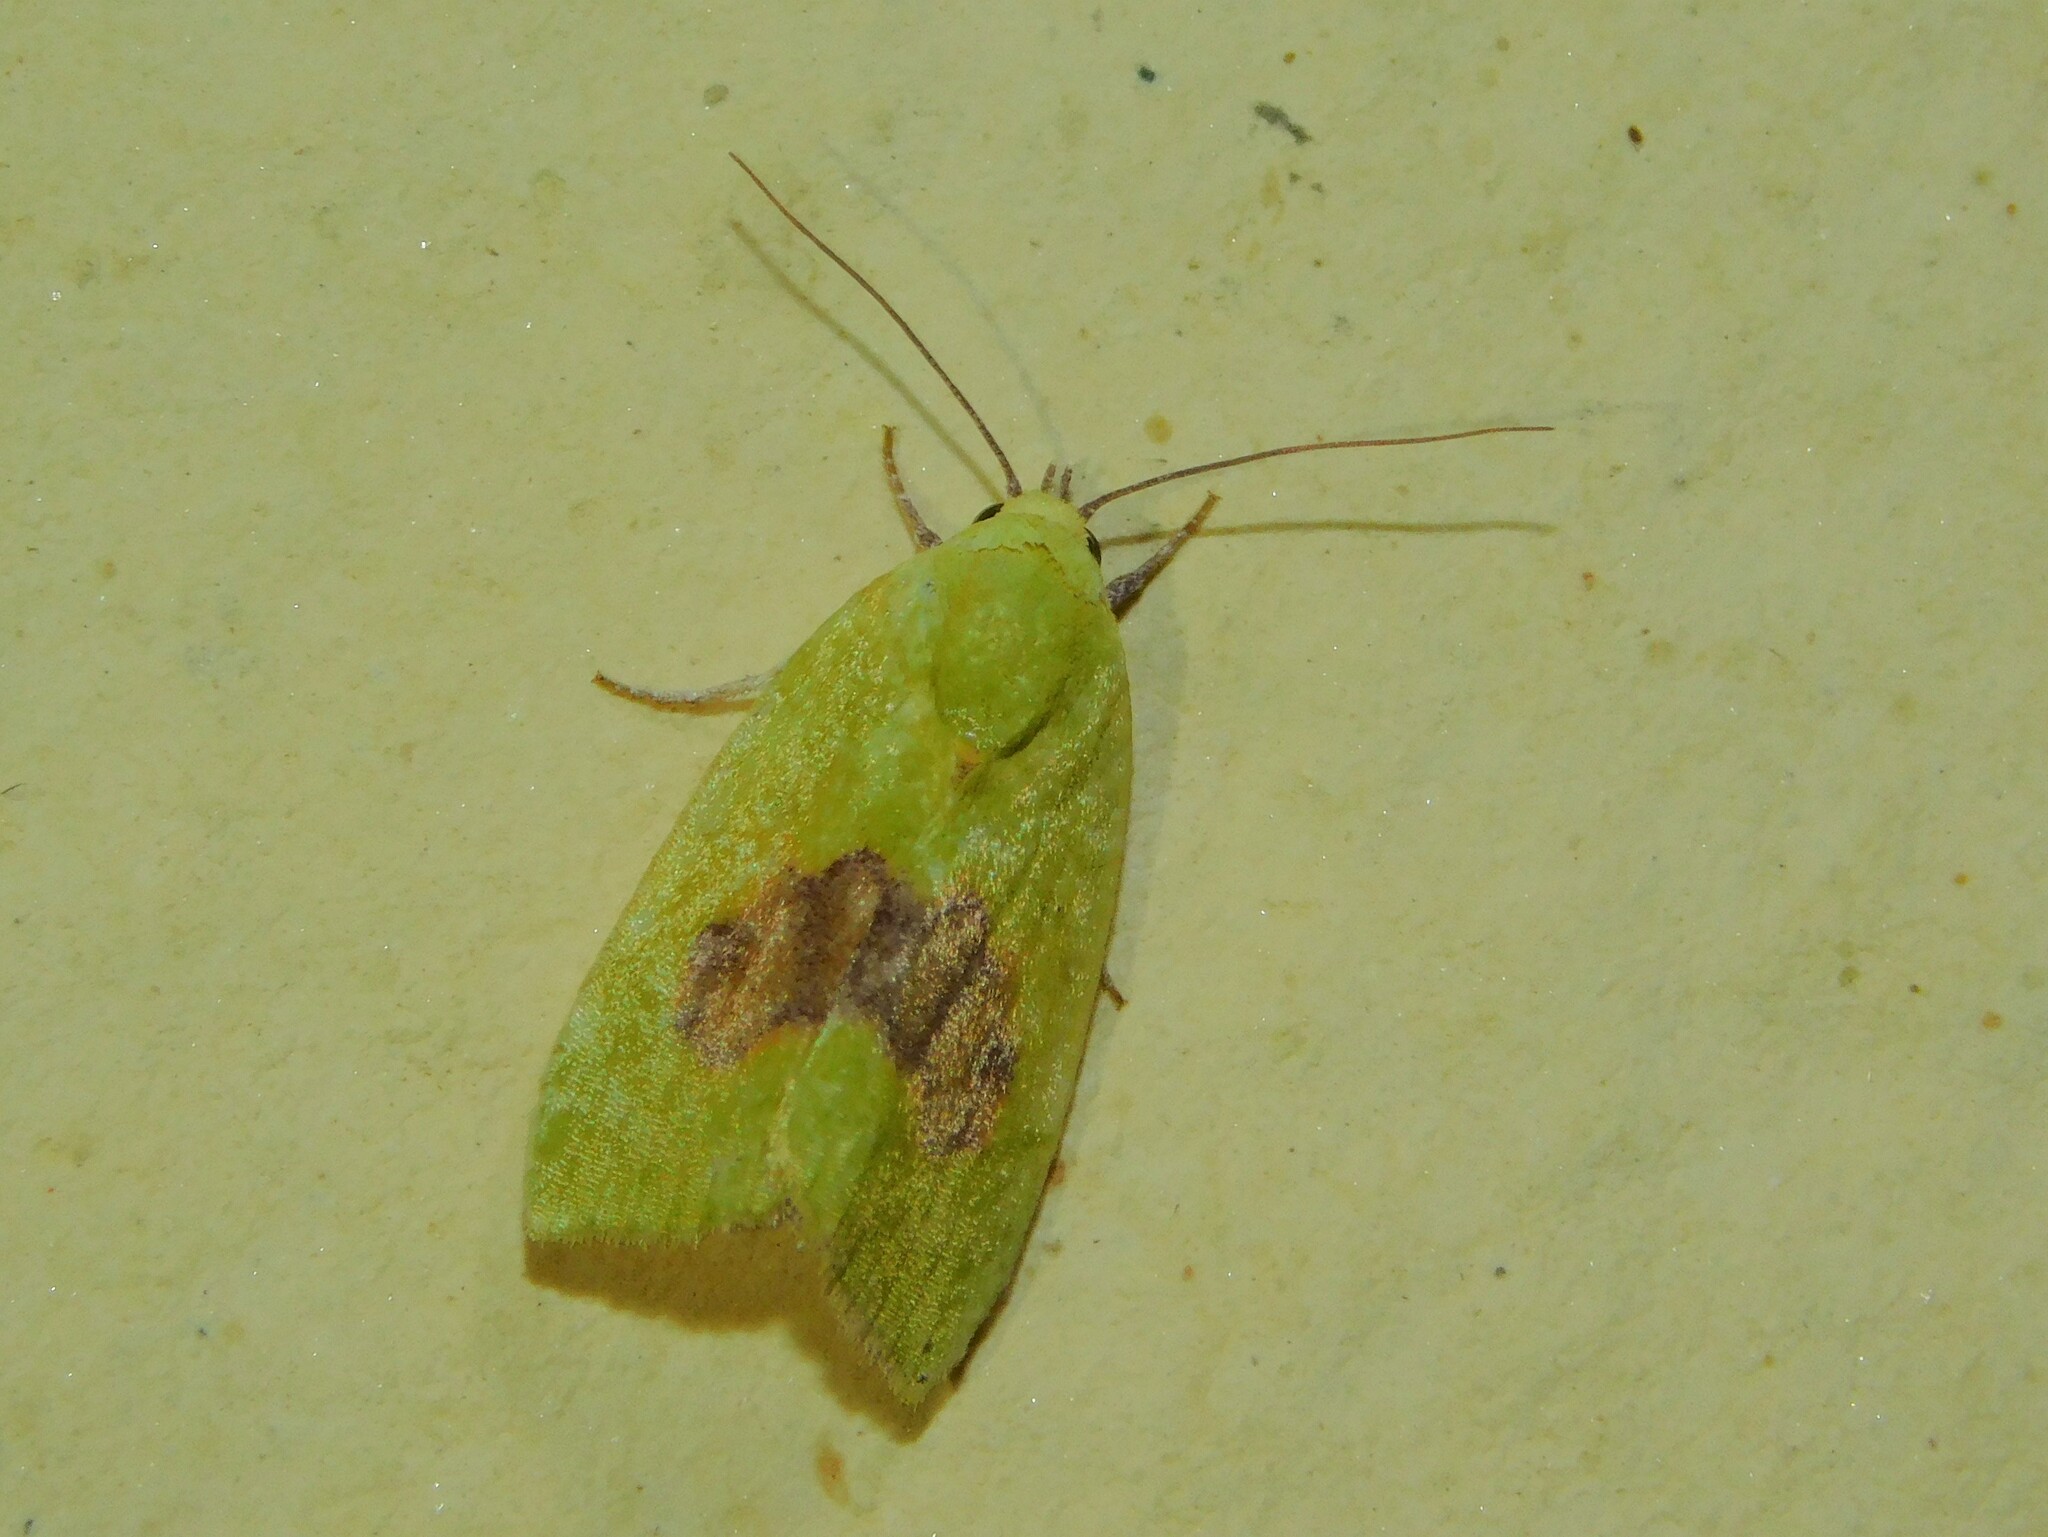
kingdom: Animalia
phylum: Arthropoda
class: Insecta
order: Lepidoptera
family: Nolidae
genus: Earias
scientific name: Earias biplaga
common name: Spiny bollworm
